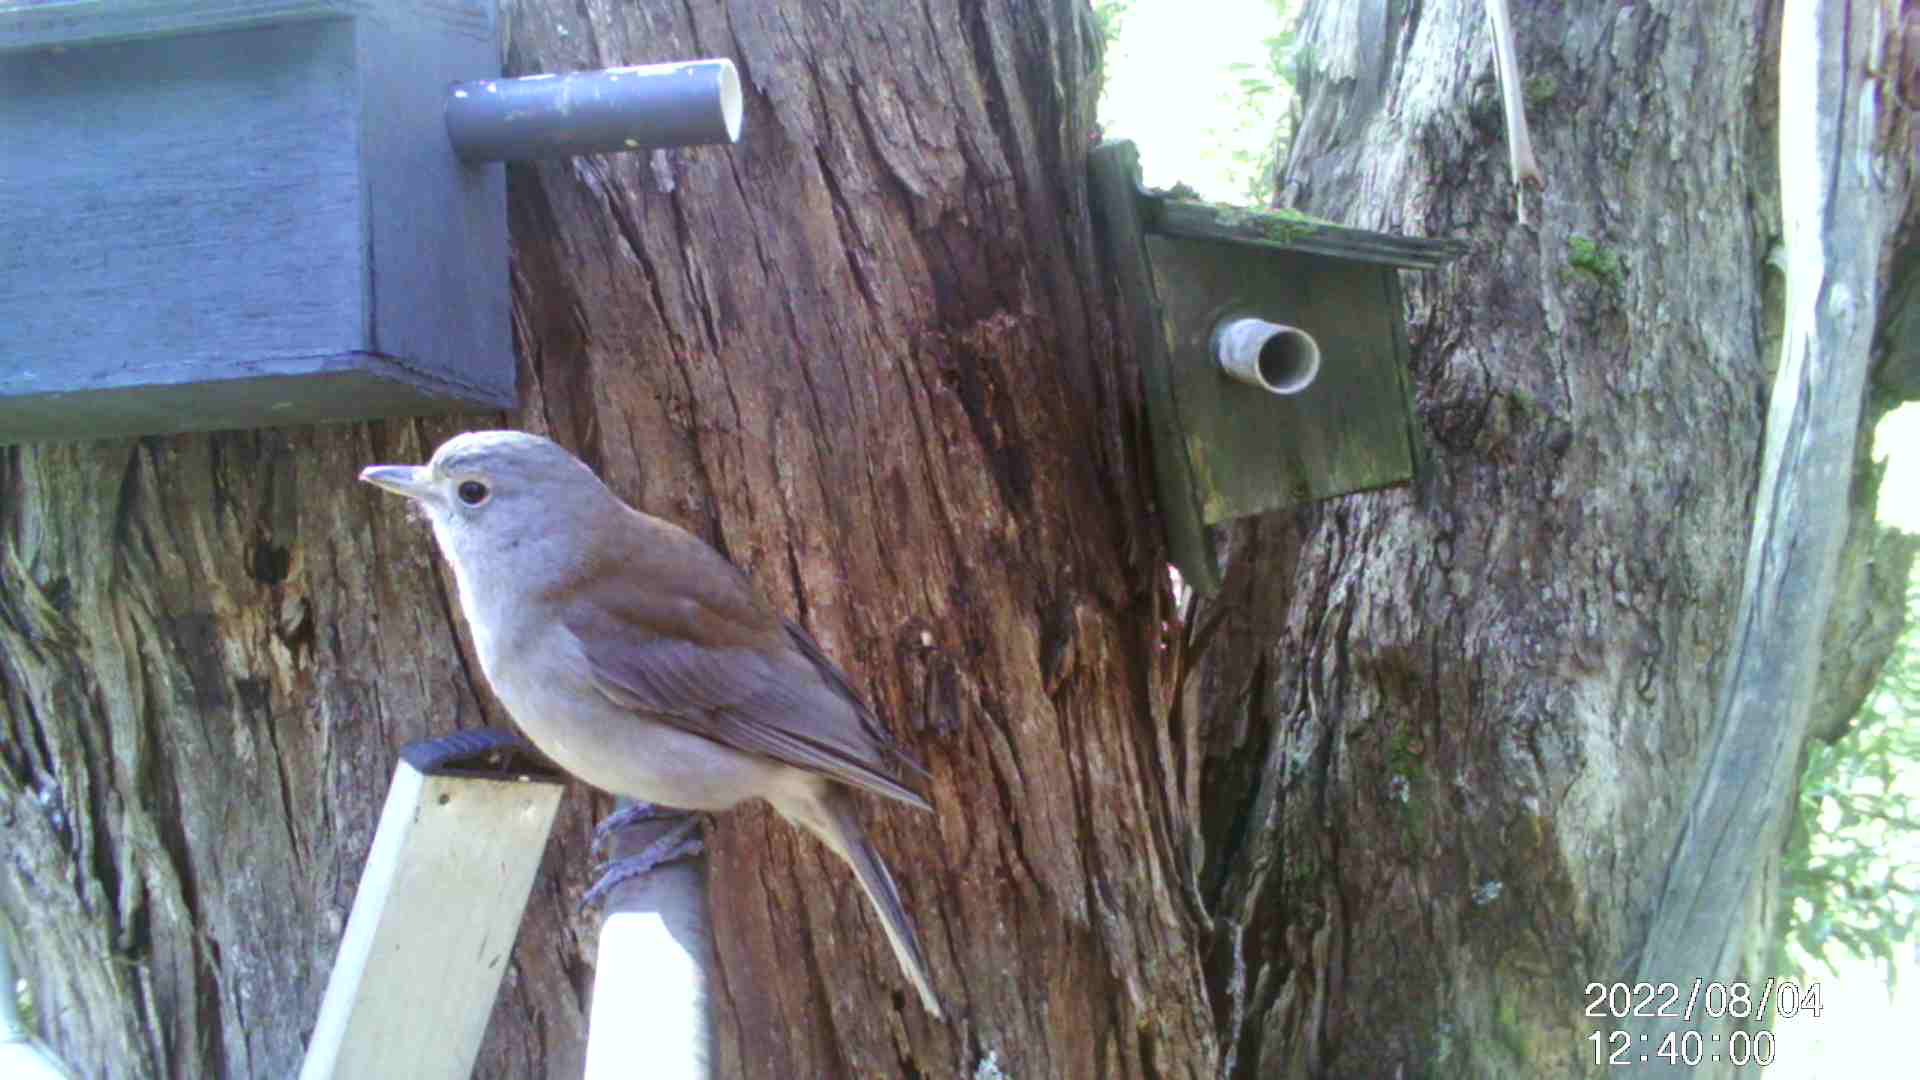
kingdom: Animalia
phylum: Chordata
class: Aves
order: Passeriformes
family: Pachycephalidae
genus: Colluricincla
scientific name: Colluricincla harmonica
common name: Grey shrikethrush
